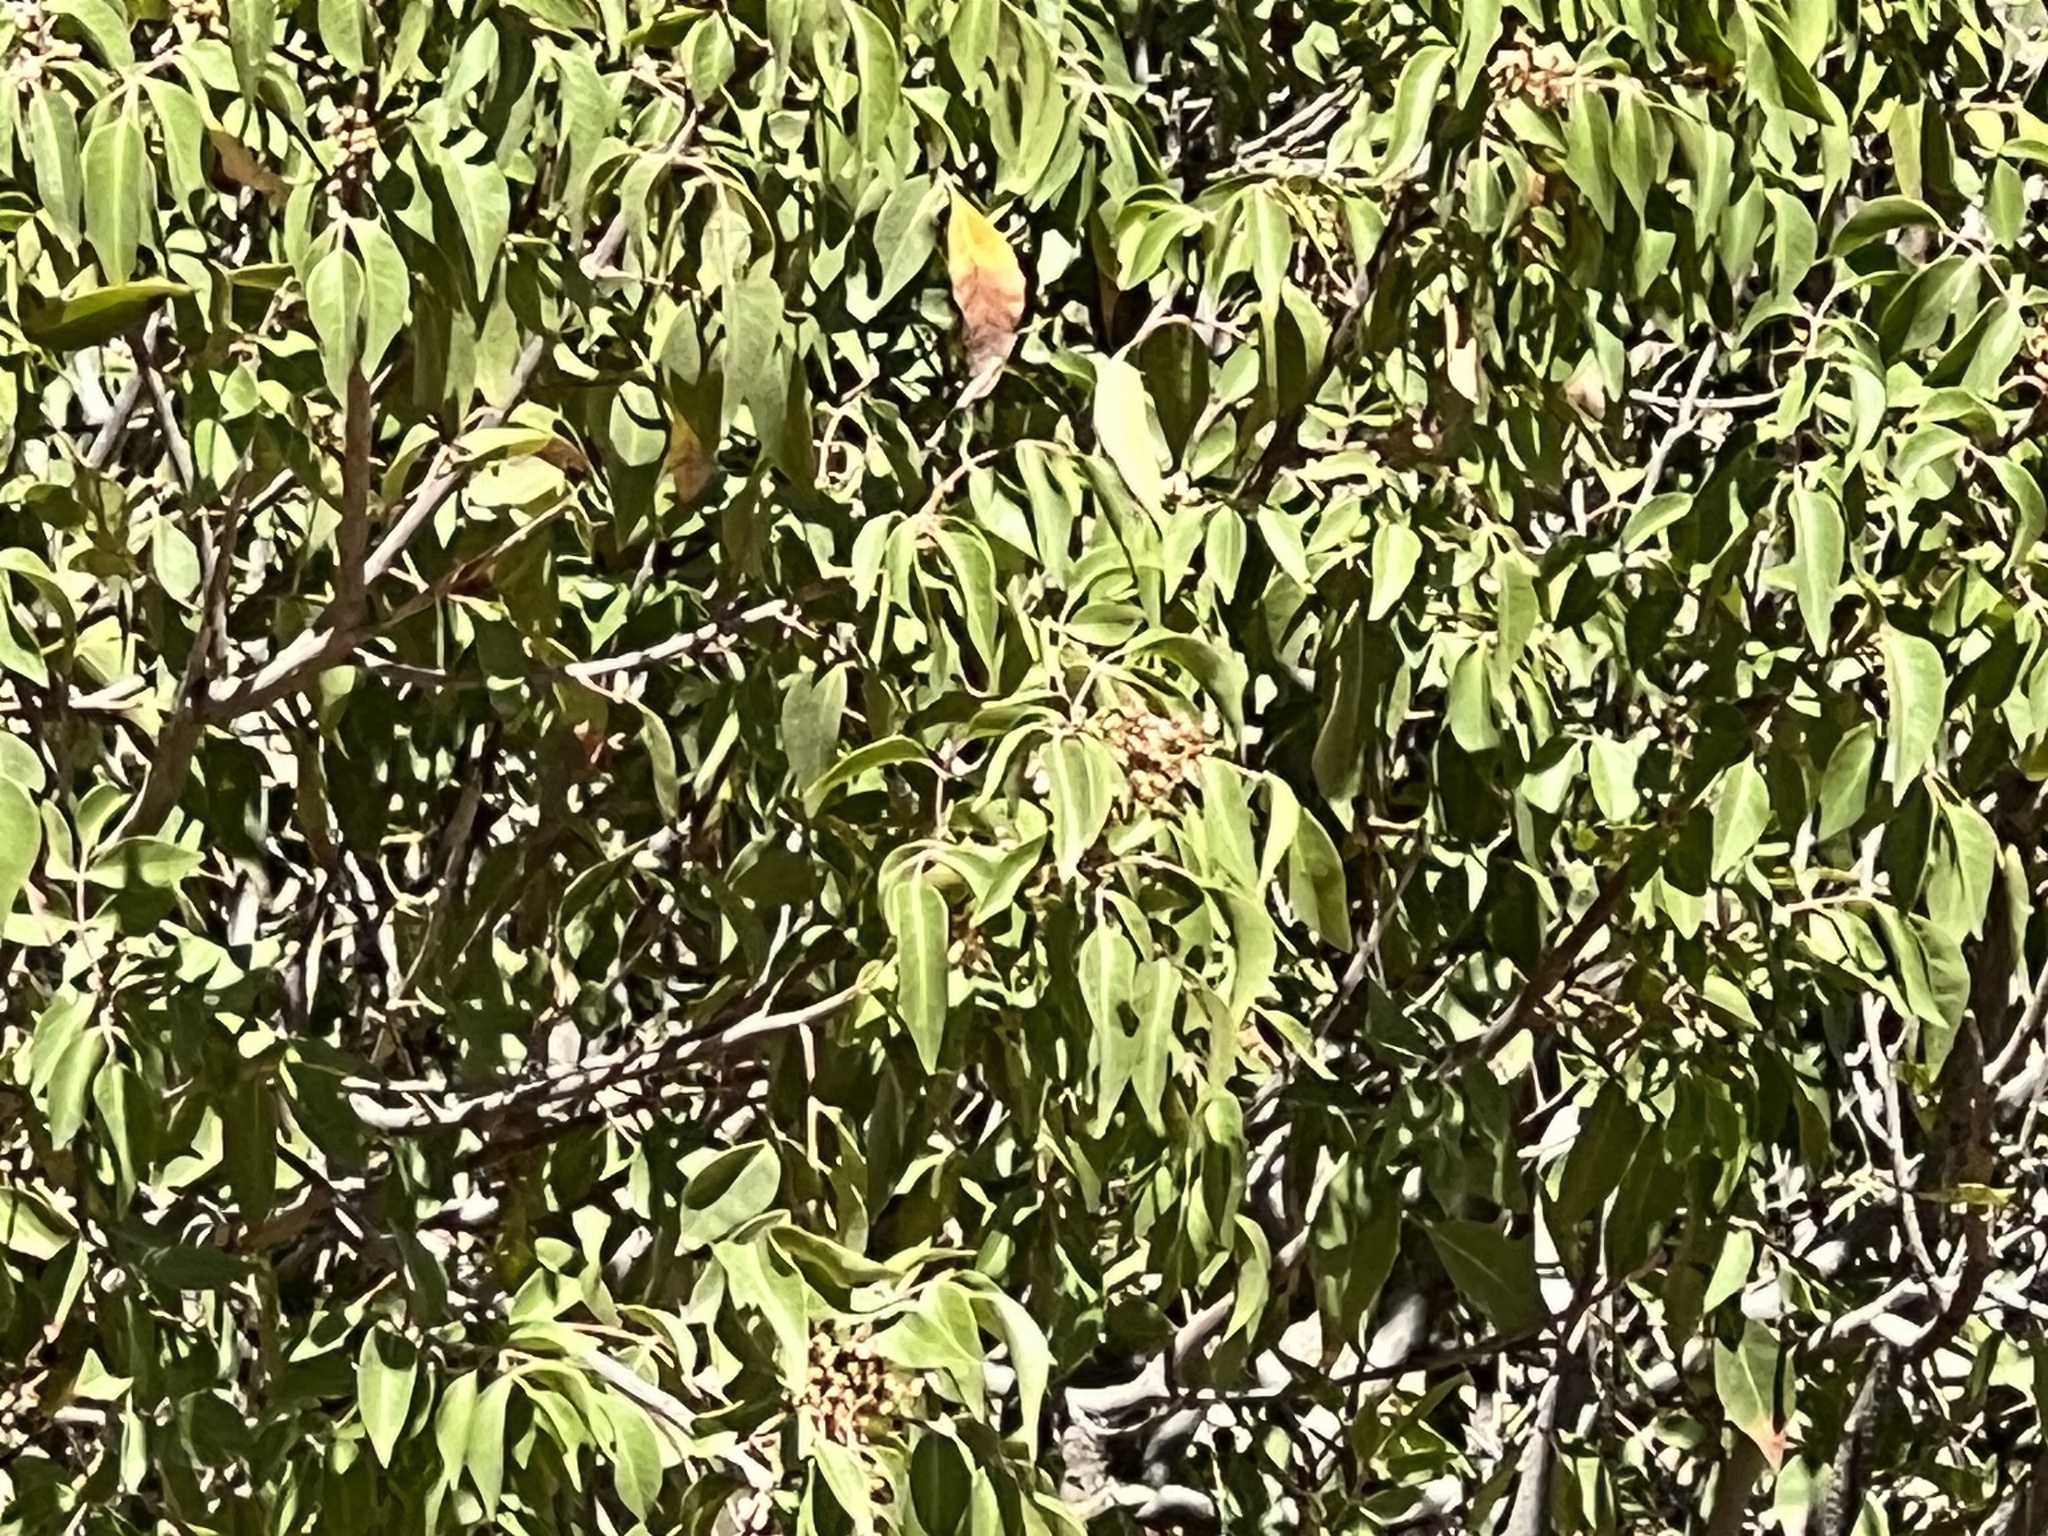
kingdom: Plantae
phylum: Tracheophyta
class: Magnoliopsida
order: Sapindales
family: Anacardiaceae
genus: Rhus
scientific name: Rhus virens
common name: Evergreen sumac
